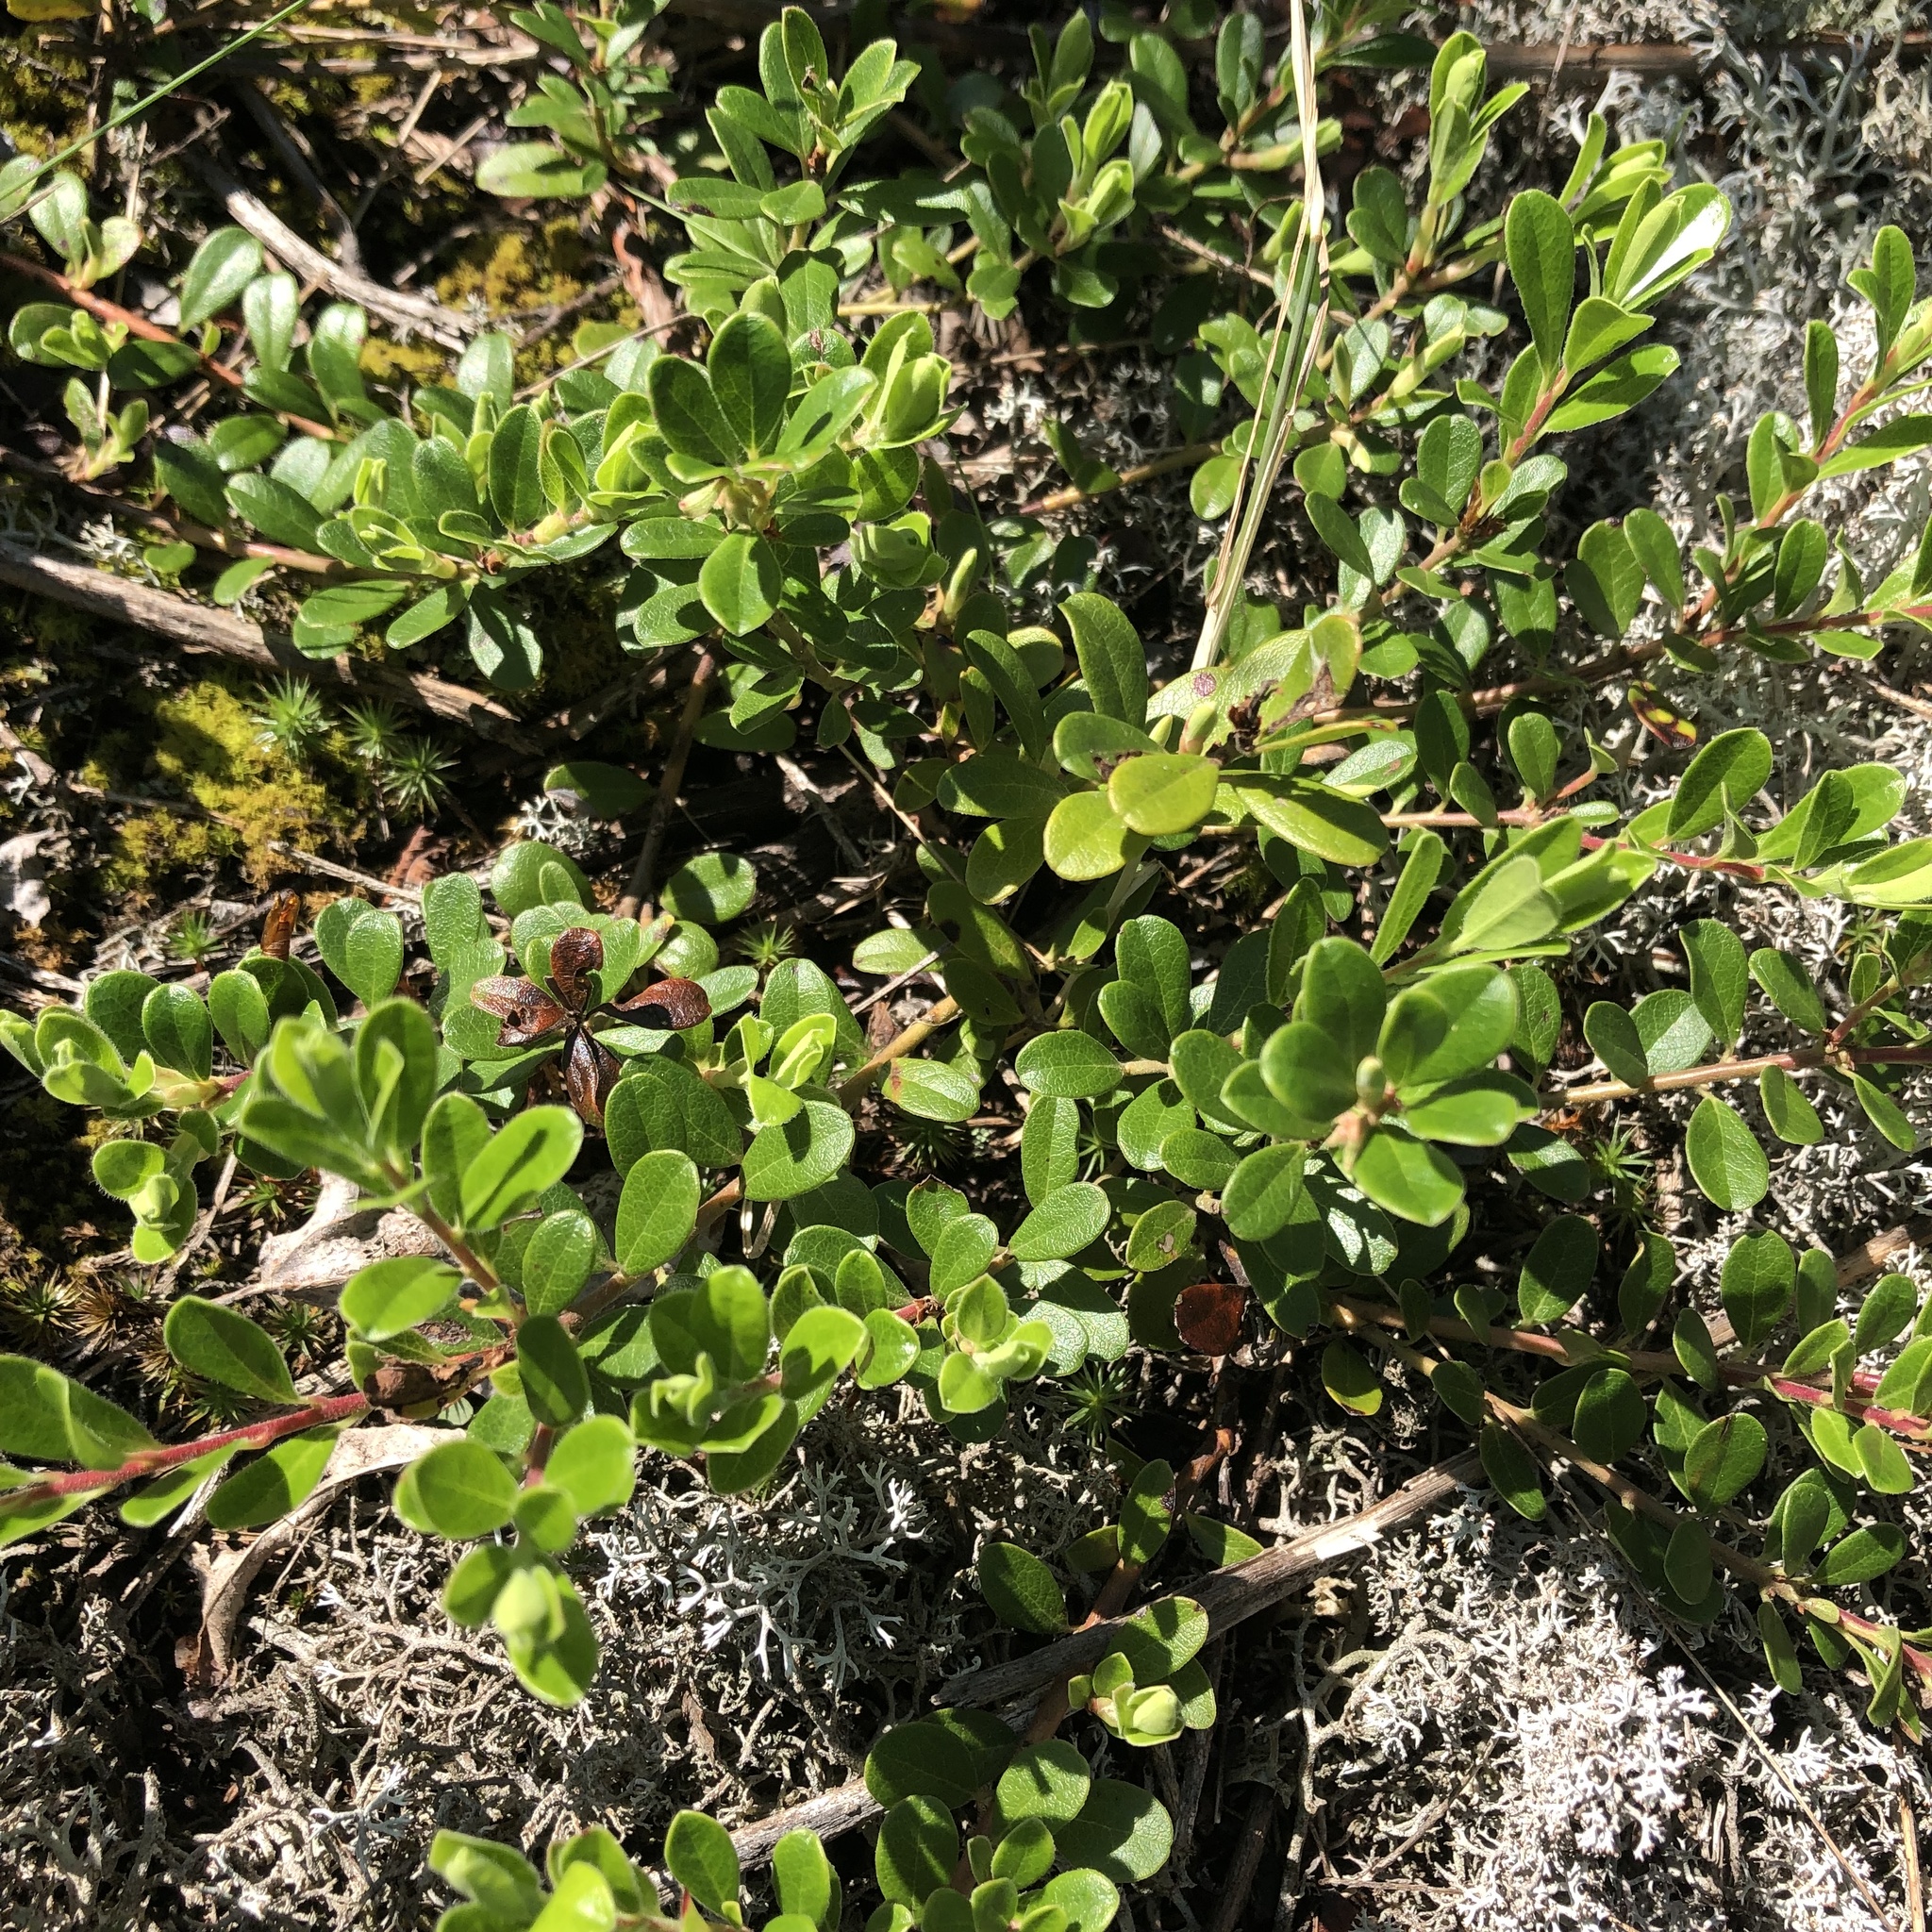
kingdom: Plantae
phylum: Tracheophyta
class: Magnoliopsida
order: Ericales
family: Ericaceae
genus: Arctostaphylos
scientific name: Arctostaphylos uva-ursi
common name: Bearberry
